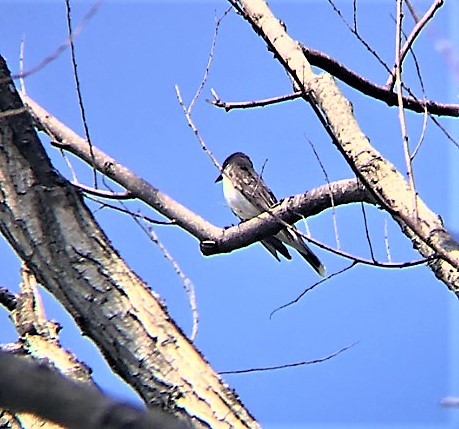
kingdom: Animalia
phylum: Chordata
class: Aves
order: Passeriformes
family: Tyrannidae
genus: Tyrannus
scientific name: Tyrannus tyrannus
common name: Eastern kingbird
